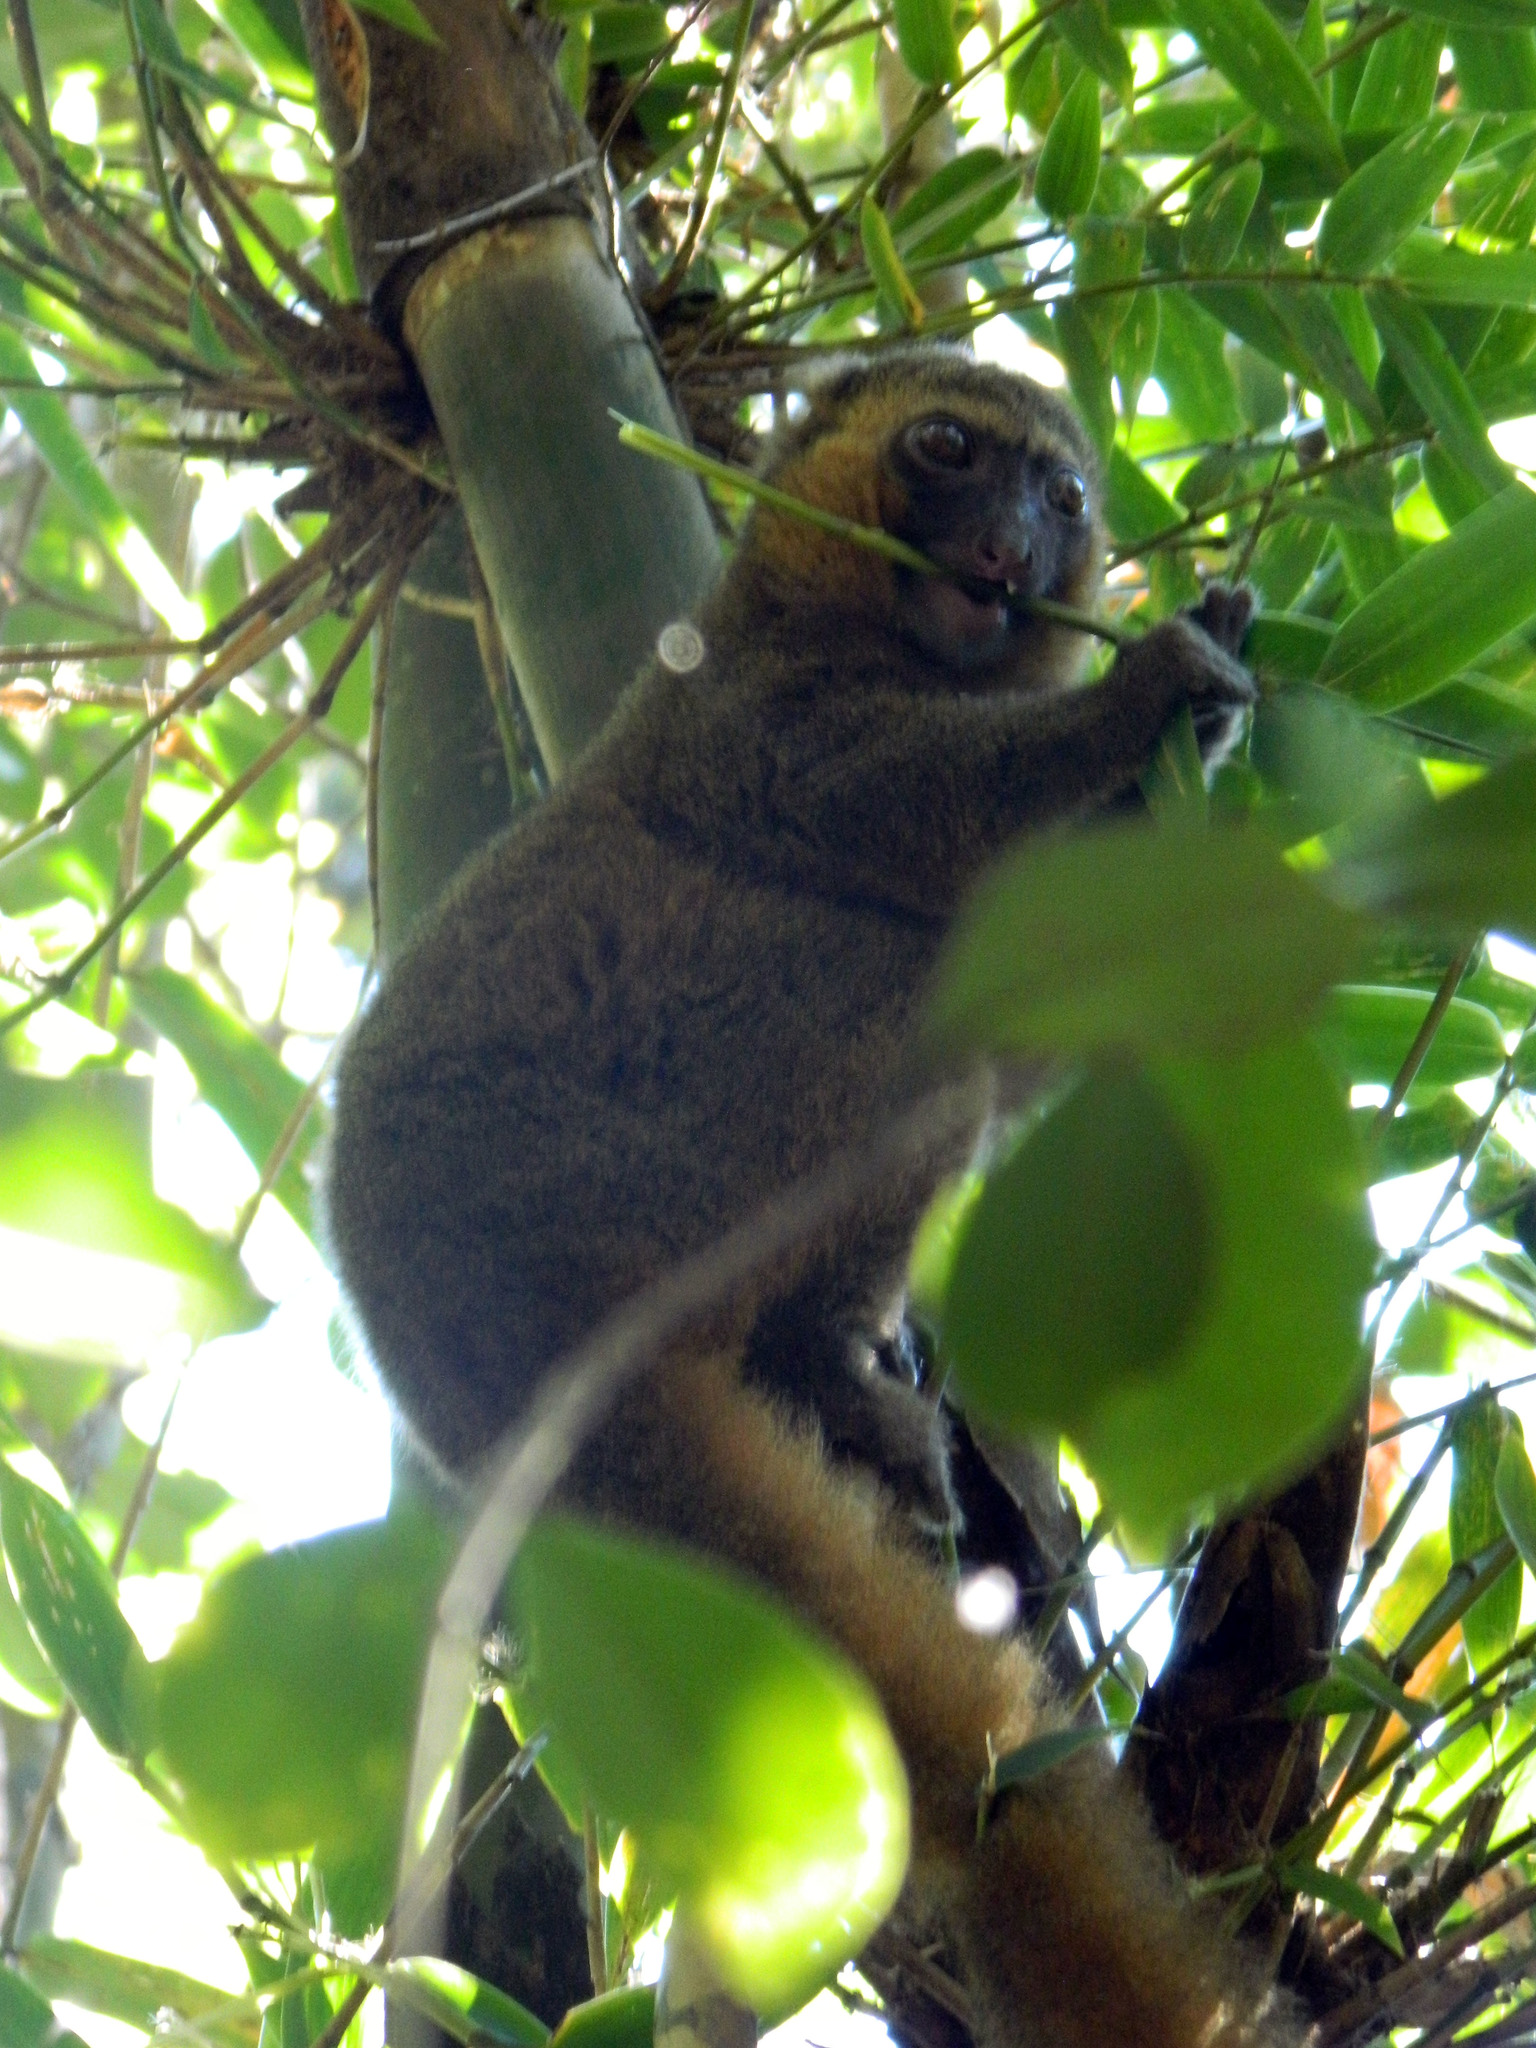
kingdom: Animalia
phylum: Chordata
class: Mammalia
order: Primates
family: Lemuridae
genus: Hapalemur
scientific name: Hapalemur aureus
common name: Golden bamboo lemur
